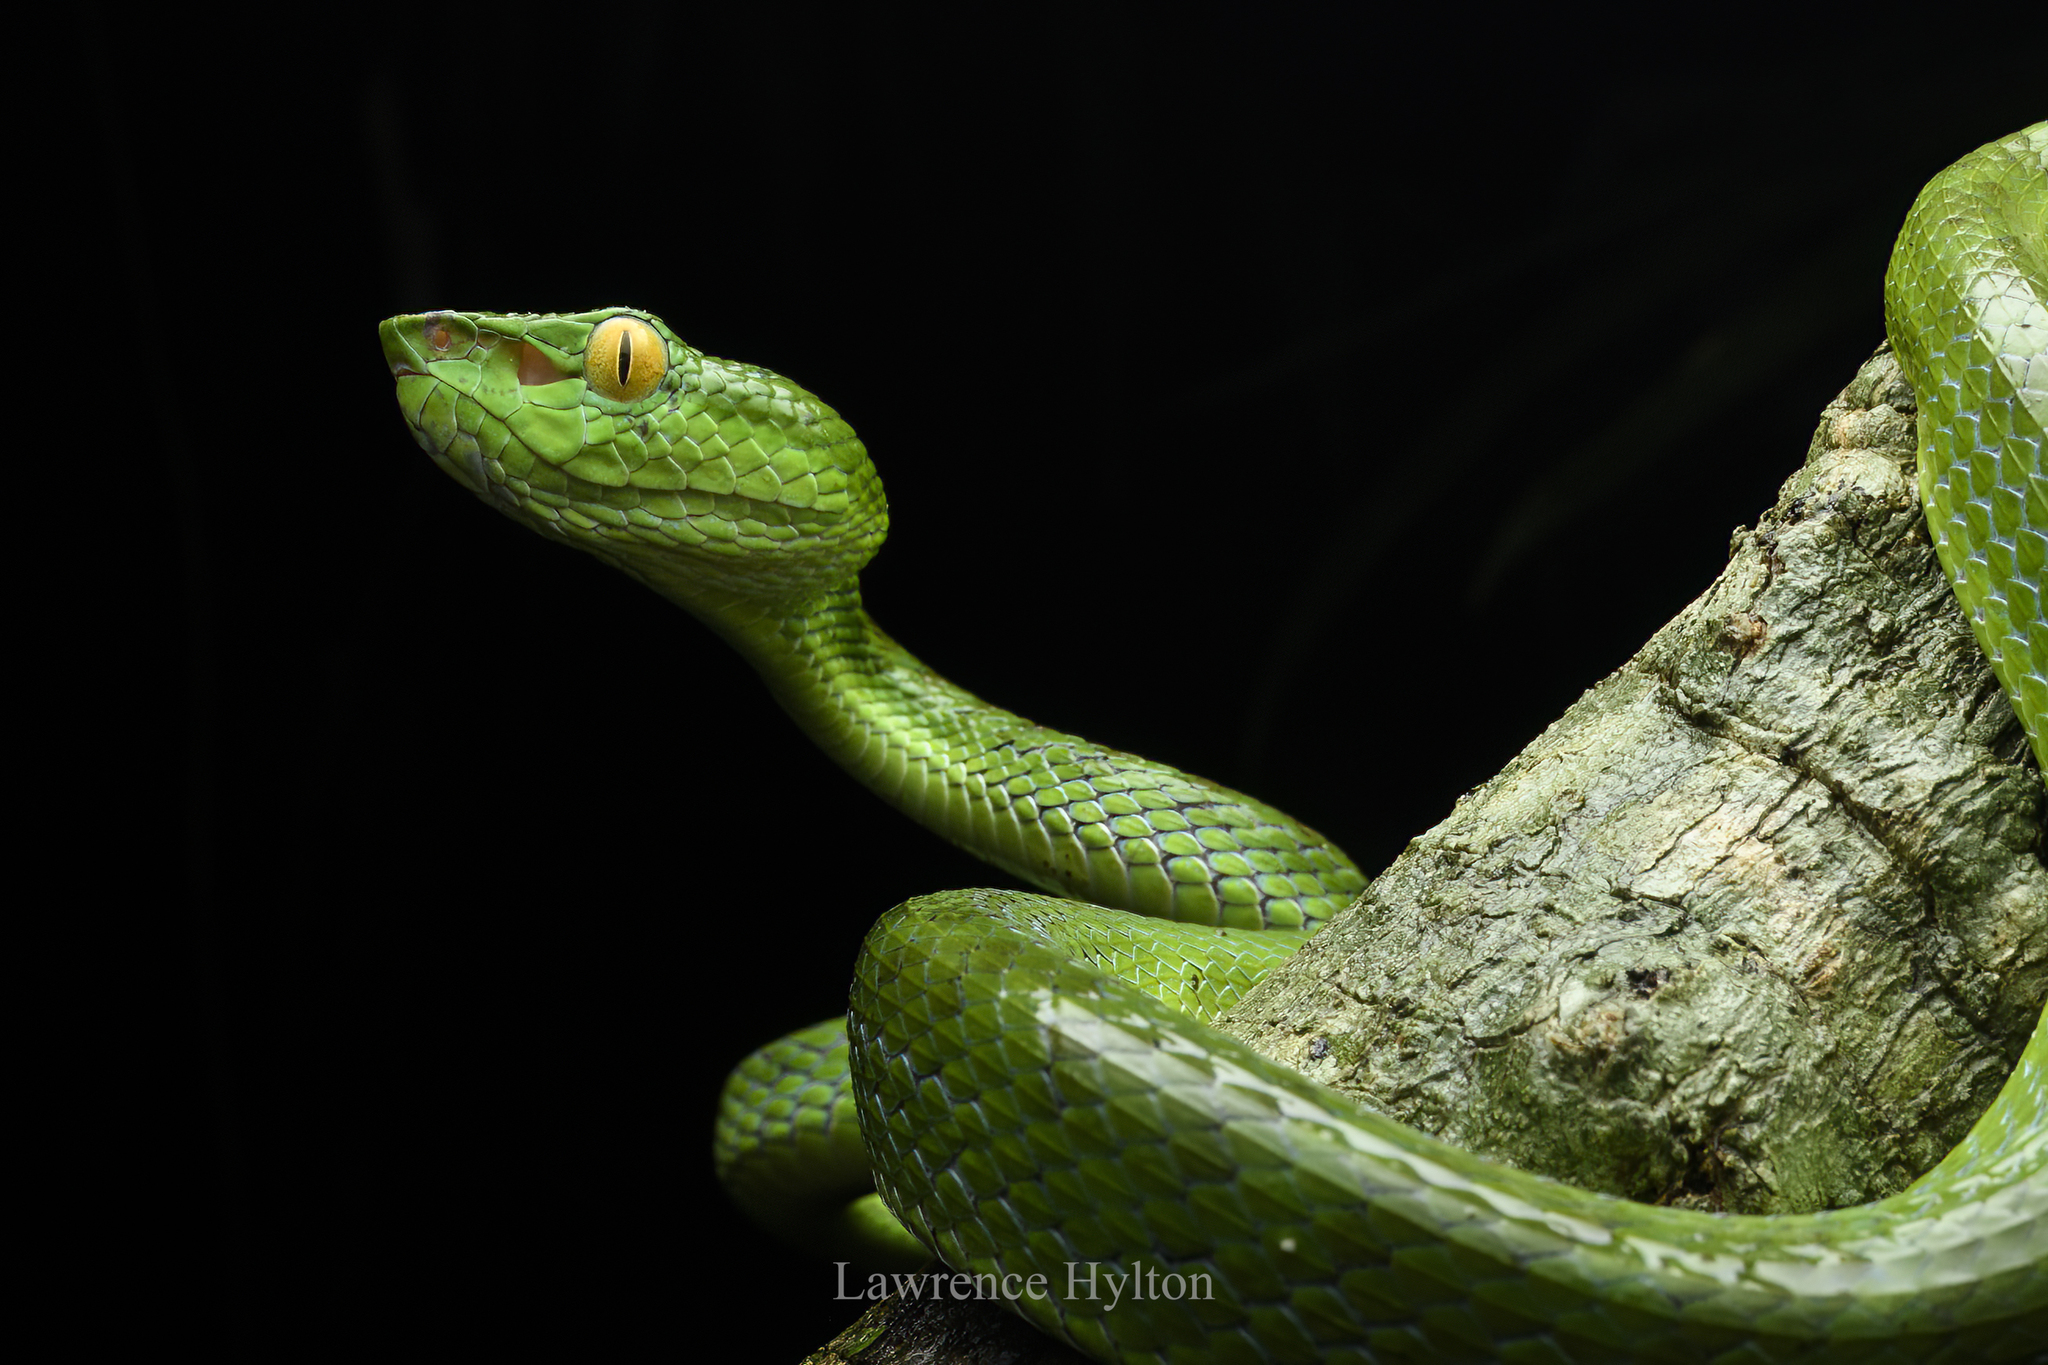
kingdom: Animalia
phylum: Chordata
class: Squamata
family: Viperidae
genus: Trimeresurus
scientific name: Trimeresurus sabahi
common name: Sabah bamboo pit viper
